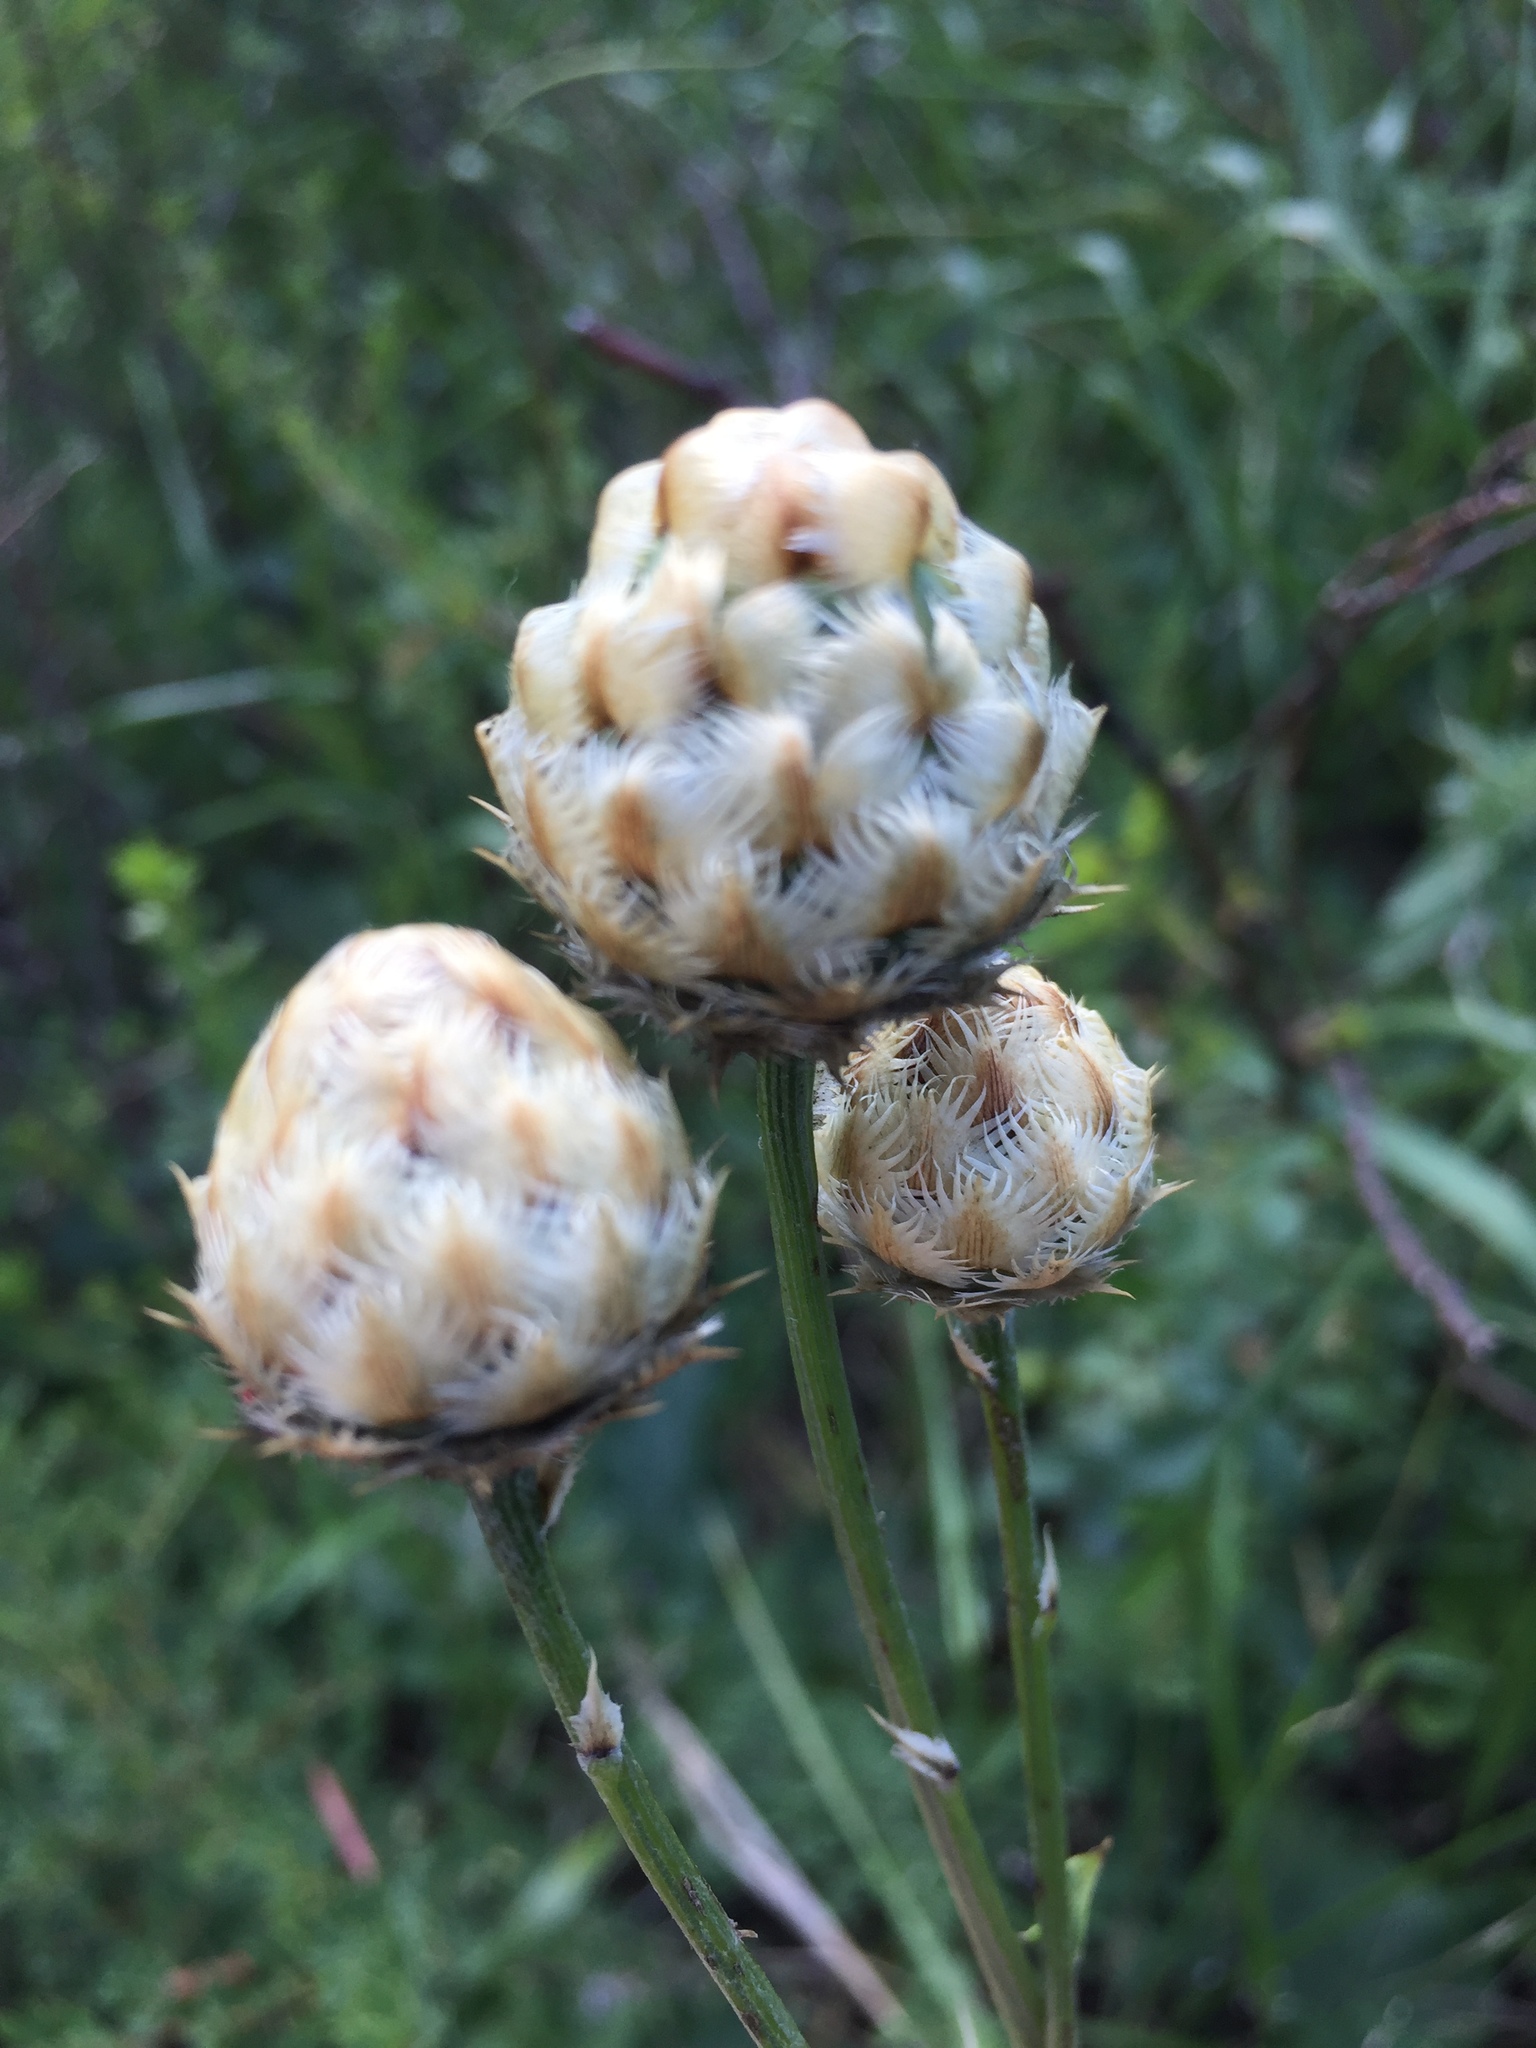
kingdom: Plantae
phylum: Tracheophyta
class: Magnoliopsida
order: Asterales
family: Asteraceae
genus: Centaurea
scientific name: Centaurea orientalis
